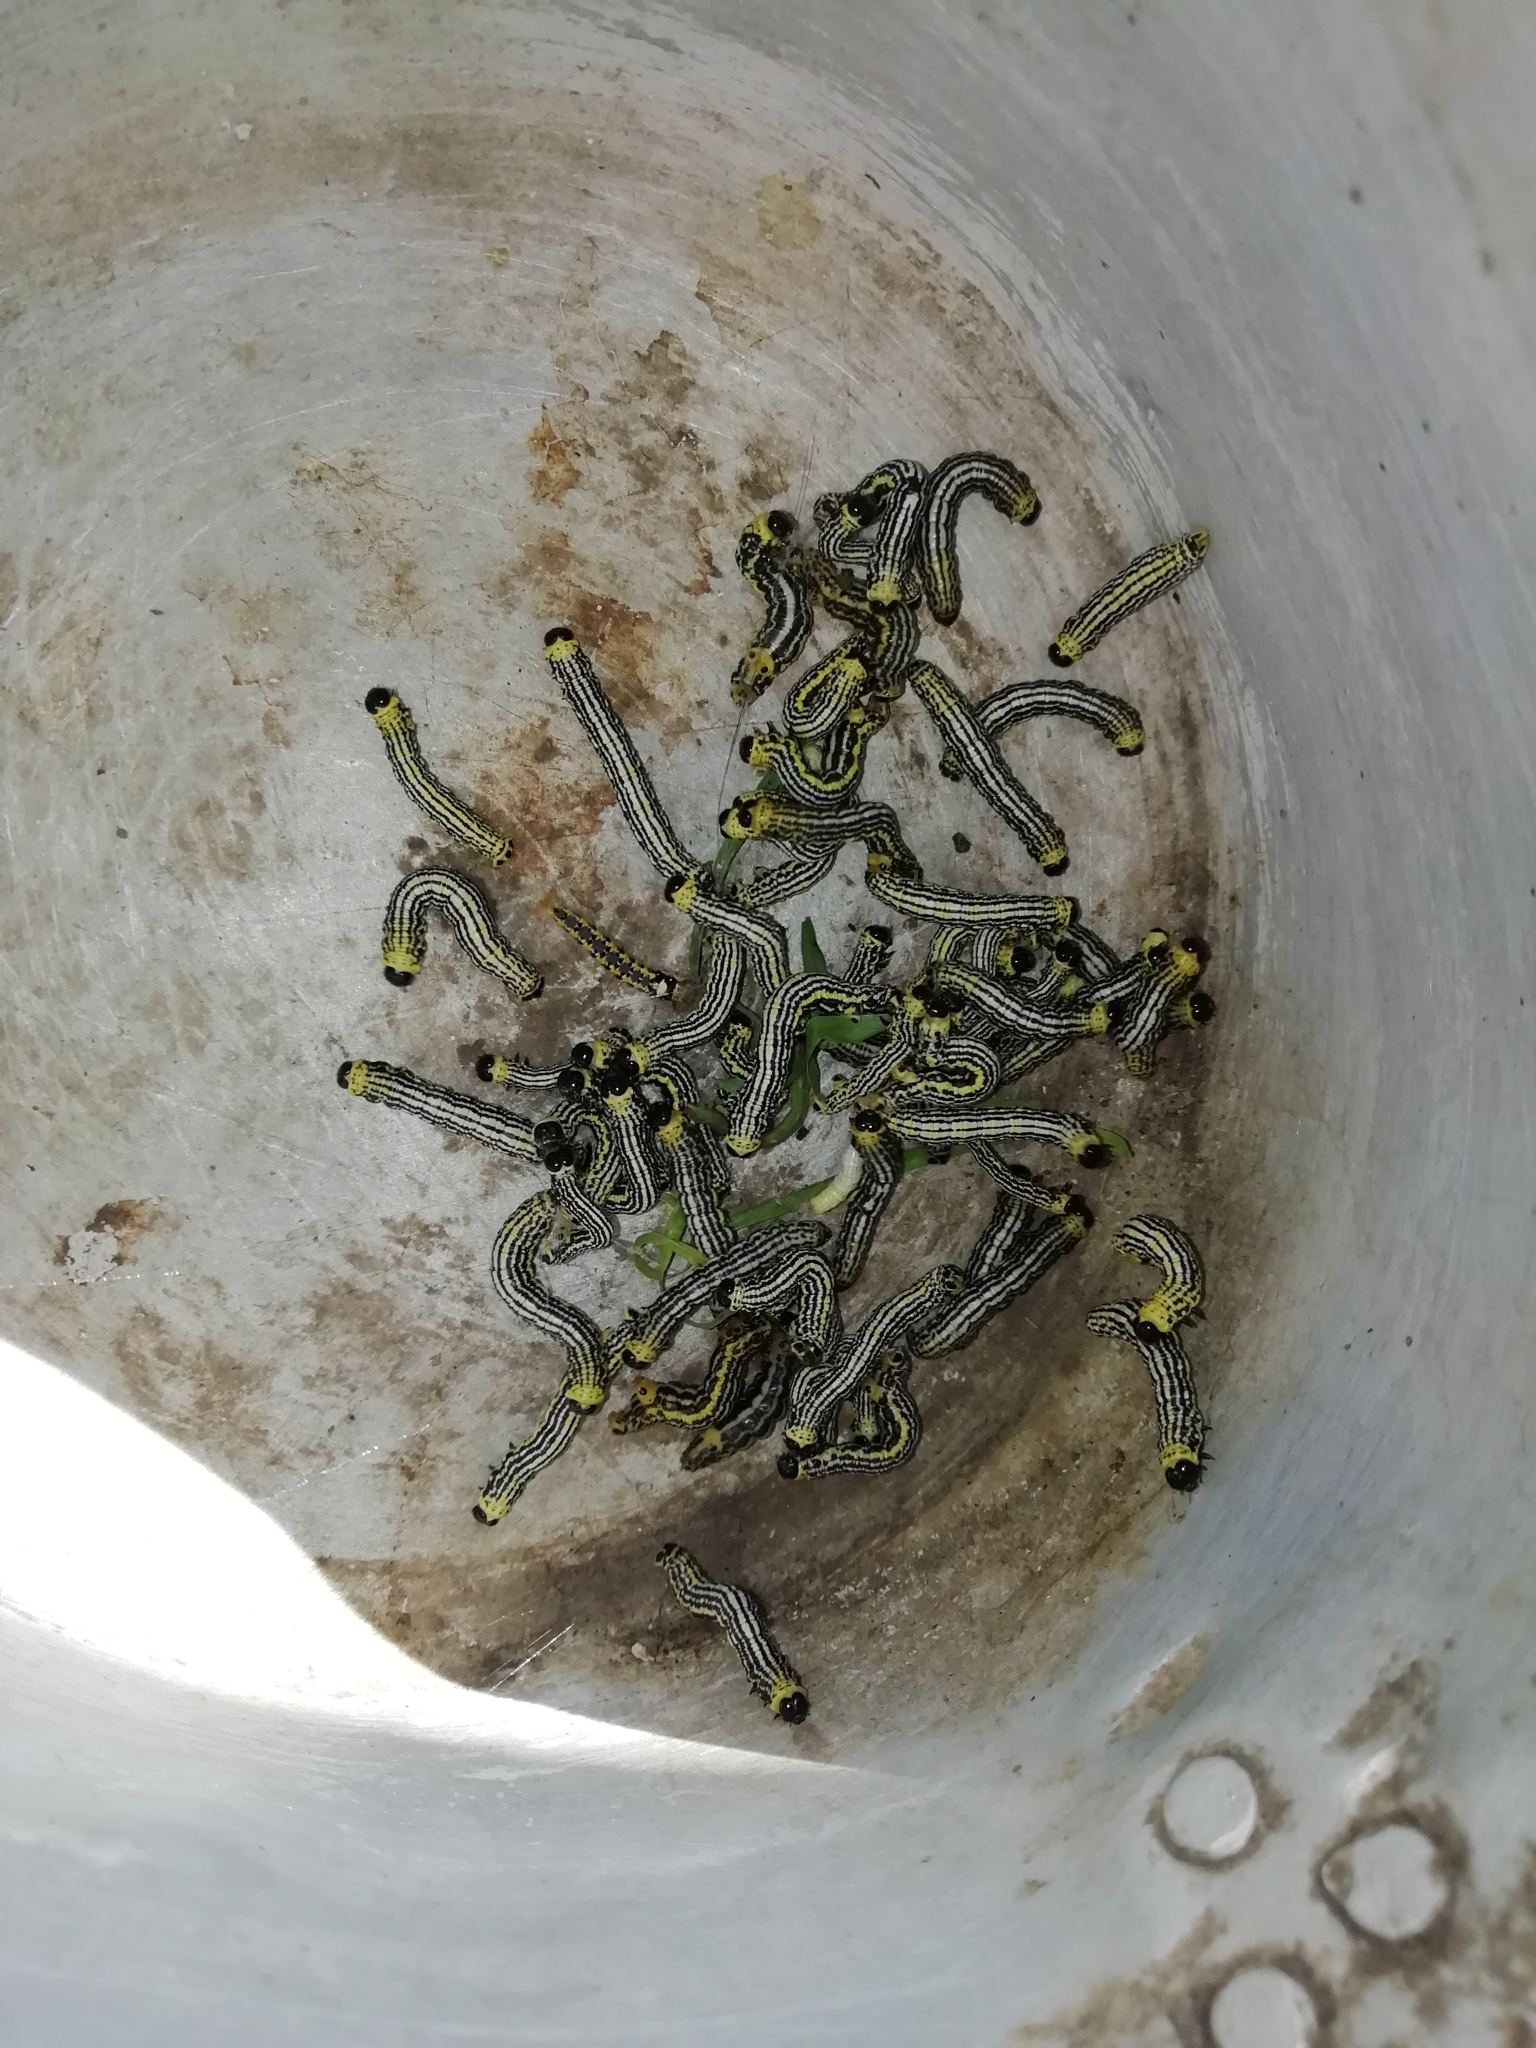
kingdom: Animalia
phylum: Arthropoda
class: Insecta
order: Lepidoptera
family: Geometridae
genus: Abraxas
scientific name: Abraxas sylvata
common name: Clouded magpie
